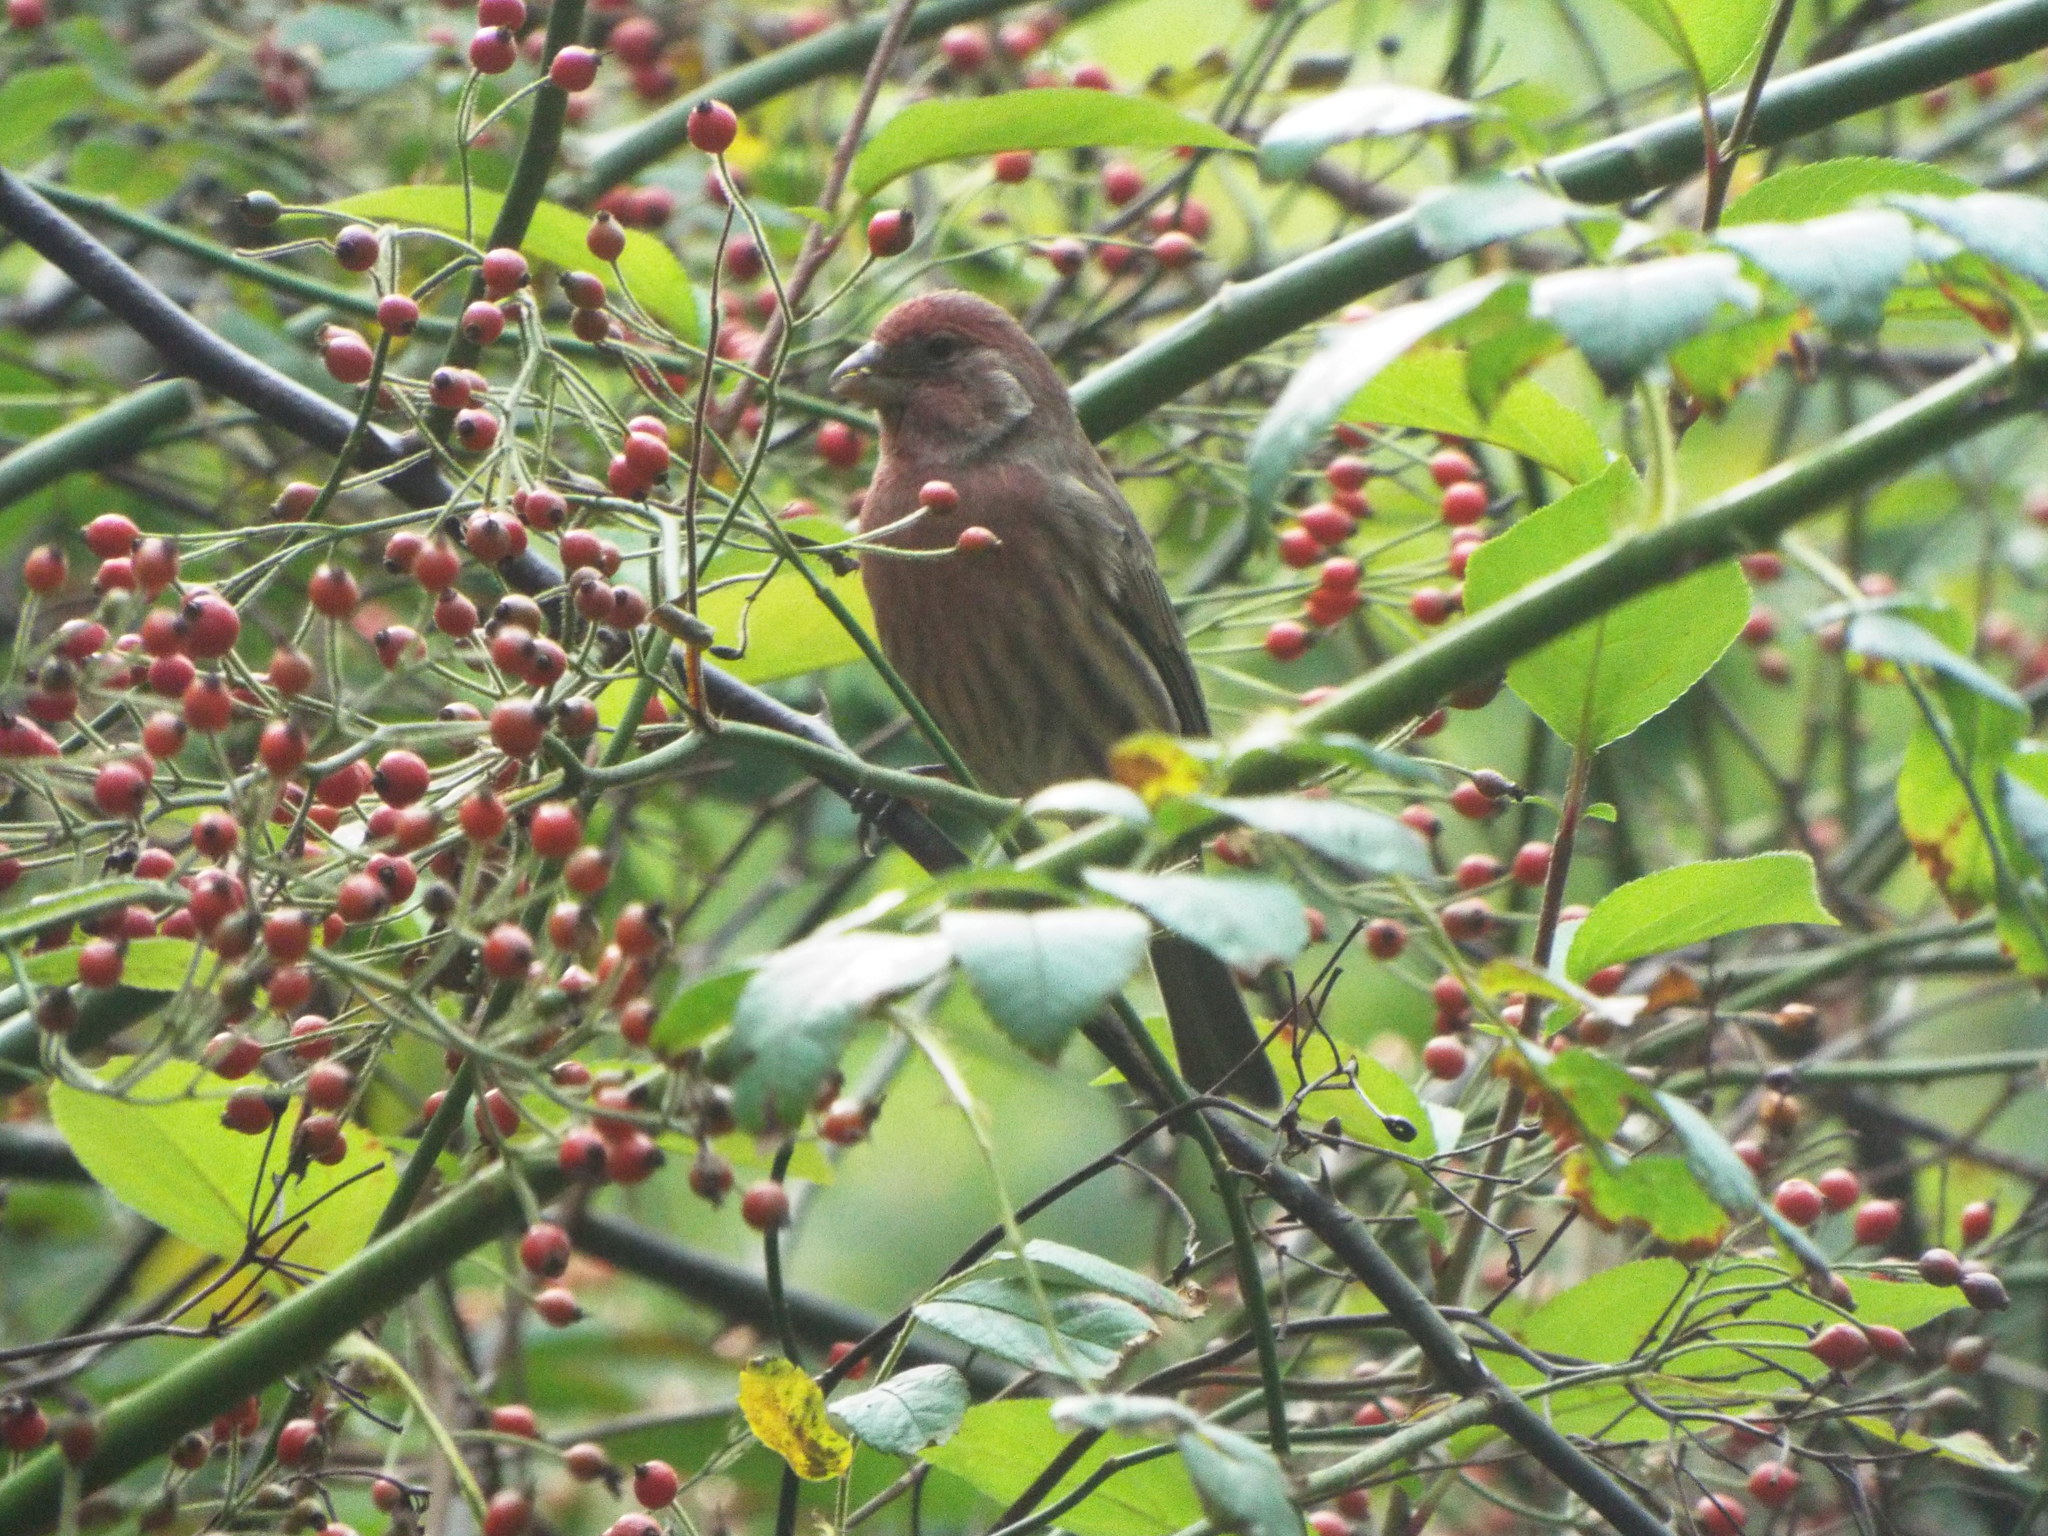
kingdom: Animalia
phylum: Chordata
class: Aves
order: Passeriformes
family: Fringillidae
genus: Haemorhous
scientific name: Haemorhous mexicanus
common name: House finch
